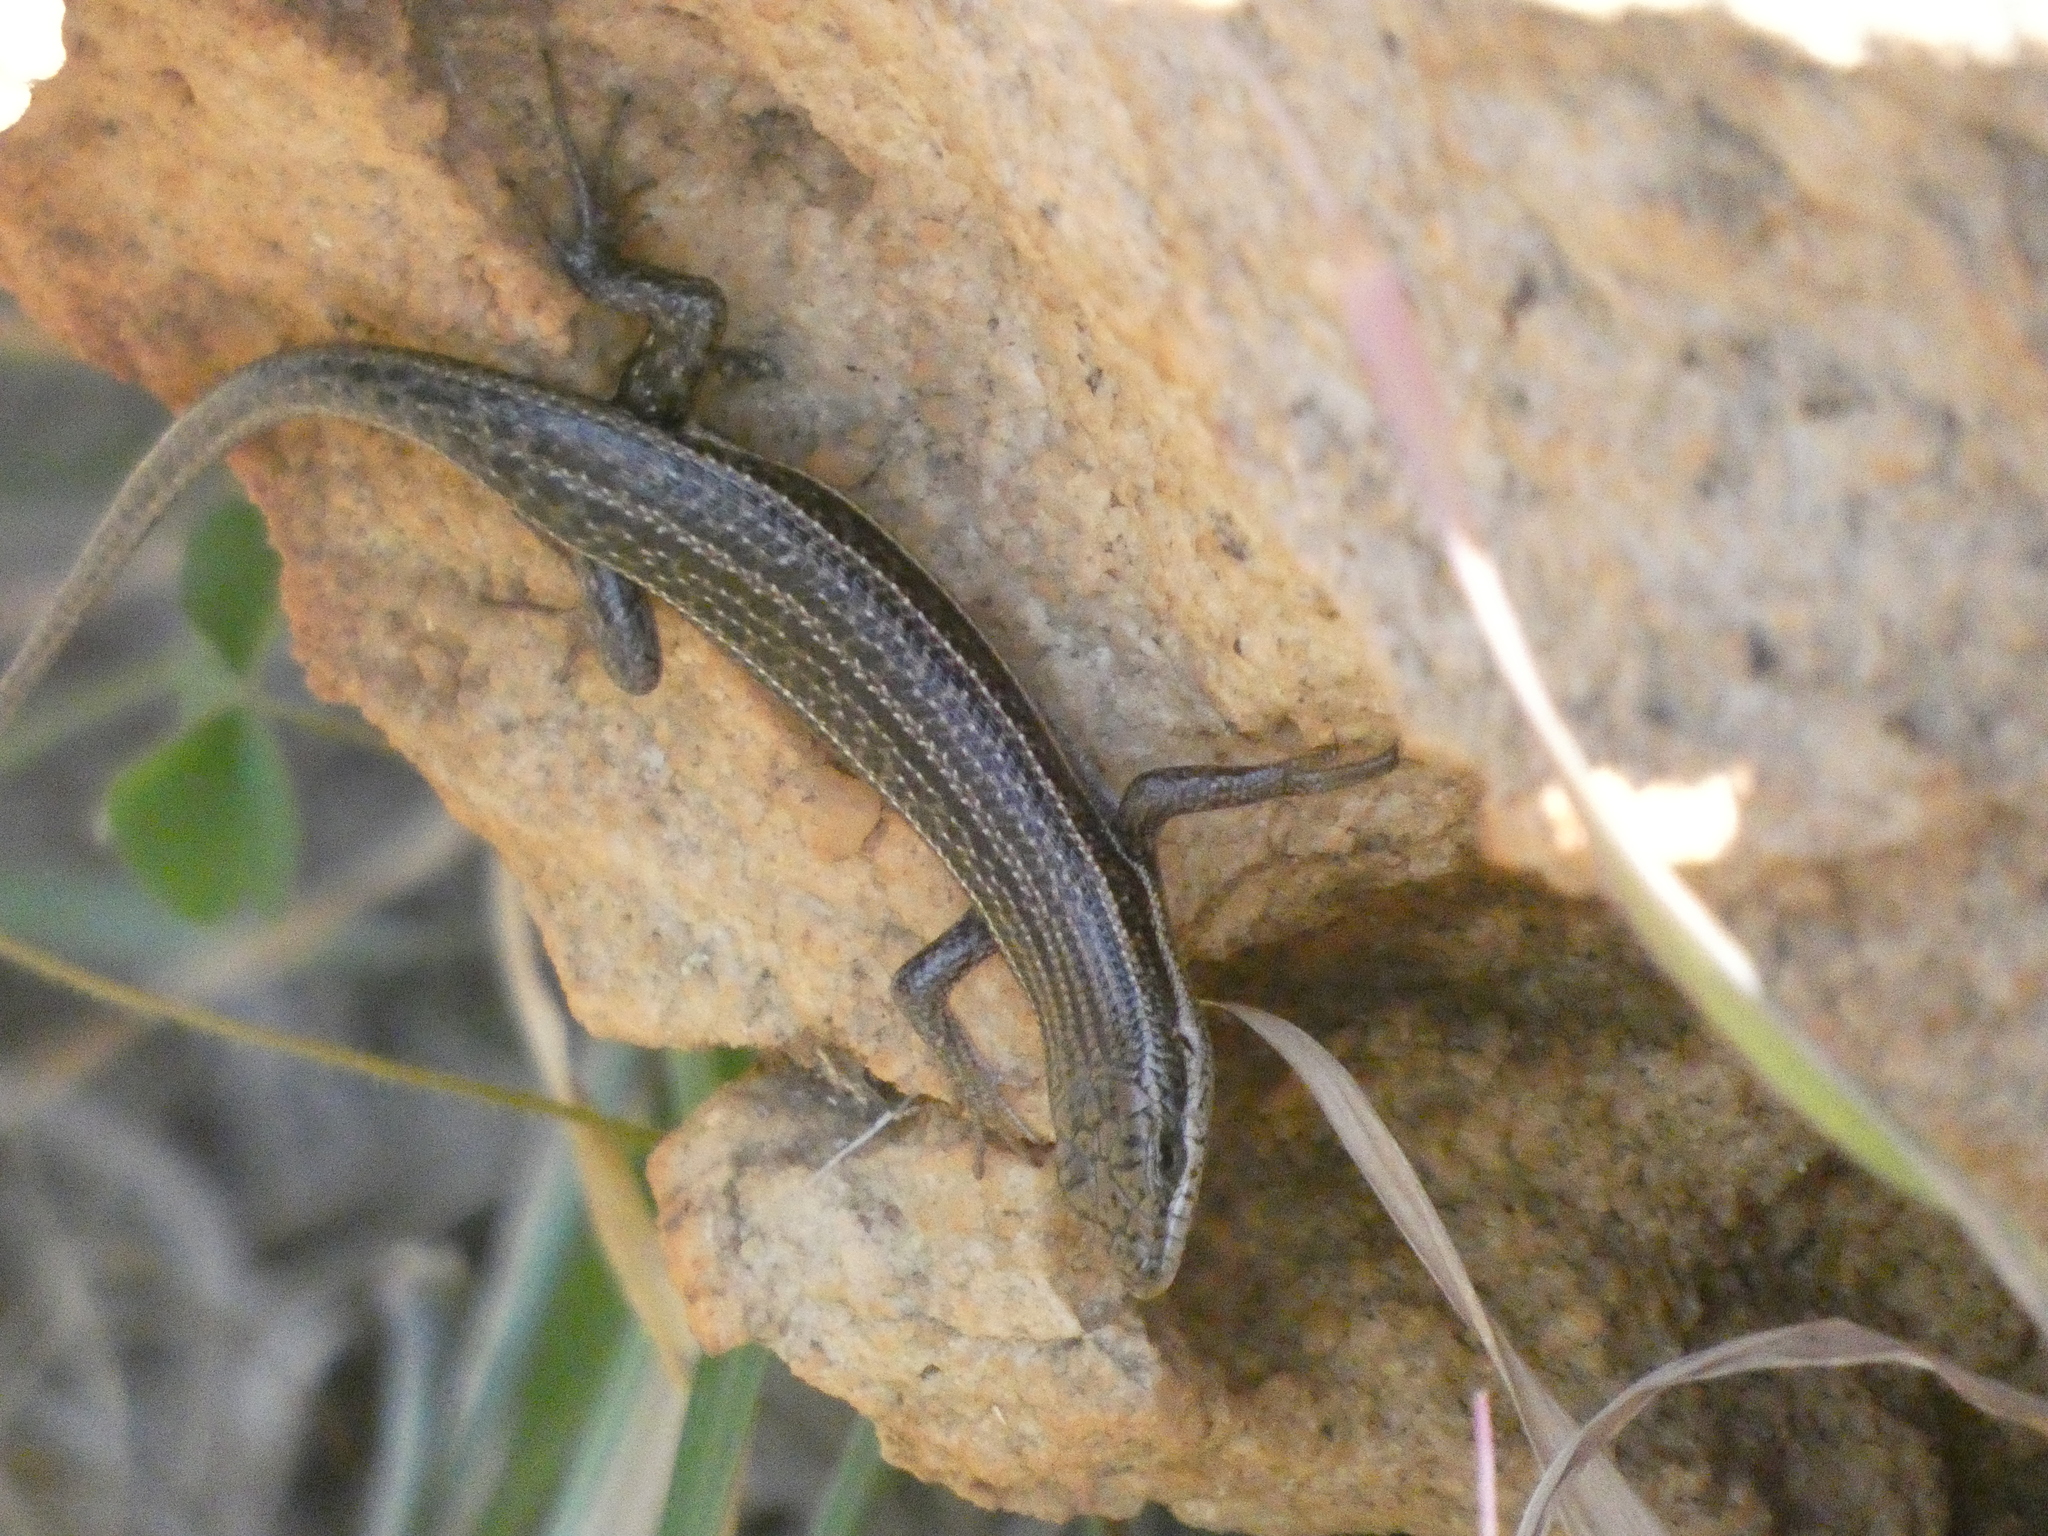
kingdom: Animalia
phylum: Chordata
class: Squamata
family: Scincidae
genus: Trachylepis
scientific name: Trachylepis varia
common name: Eastern variable skink
